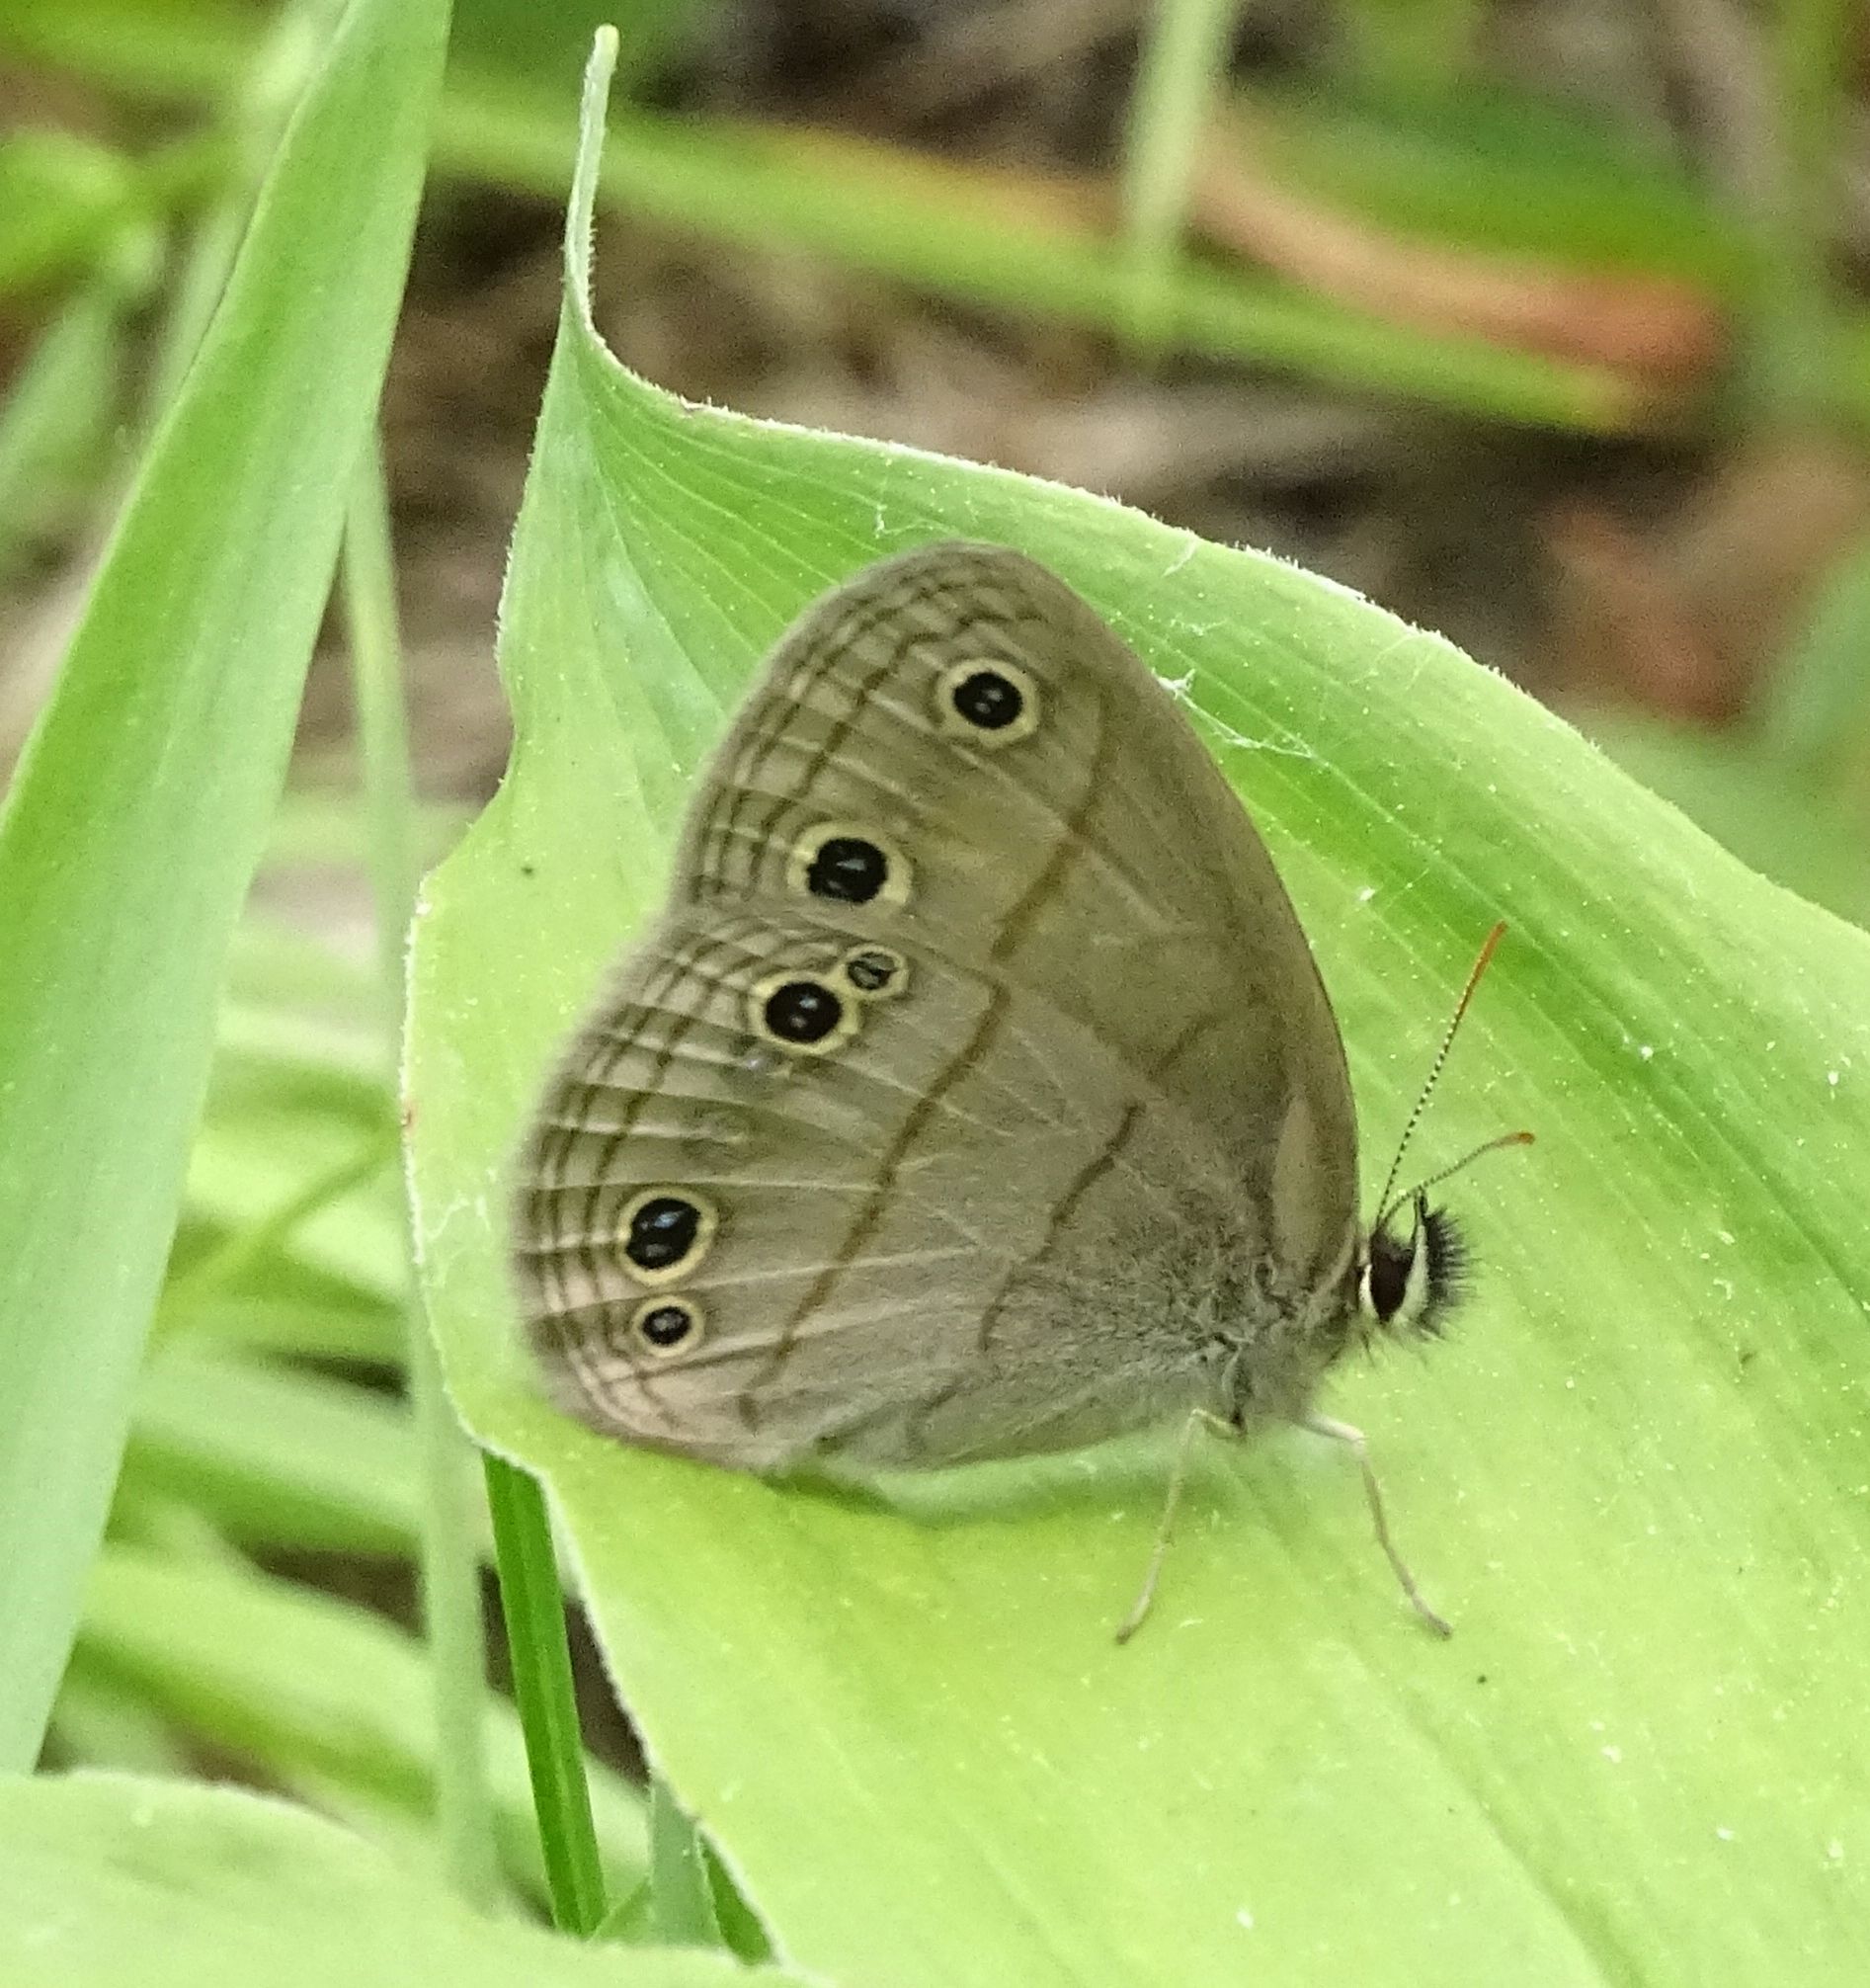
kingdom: Animalia
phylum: Arthropoda
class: Insecta
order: Lepidoptera
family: Nymphalidae
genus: Euptychia
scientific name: Euptychia cymela
